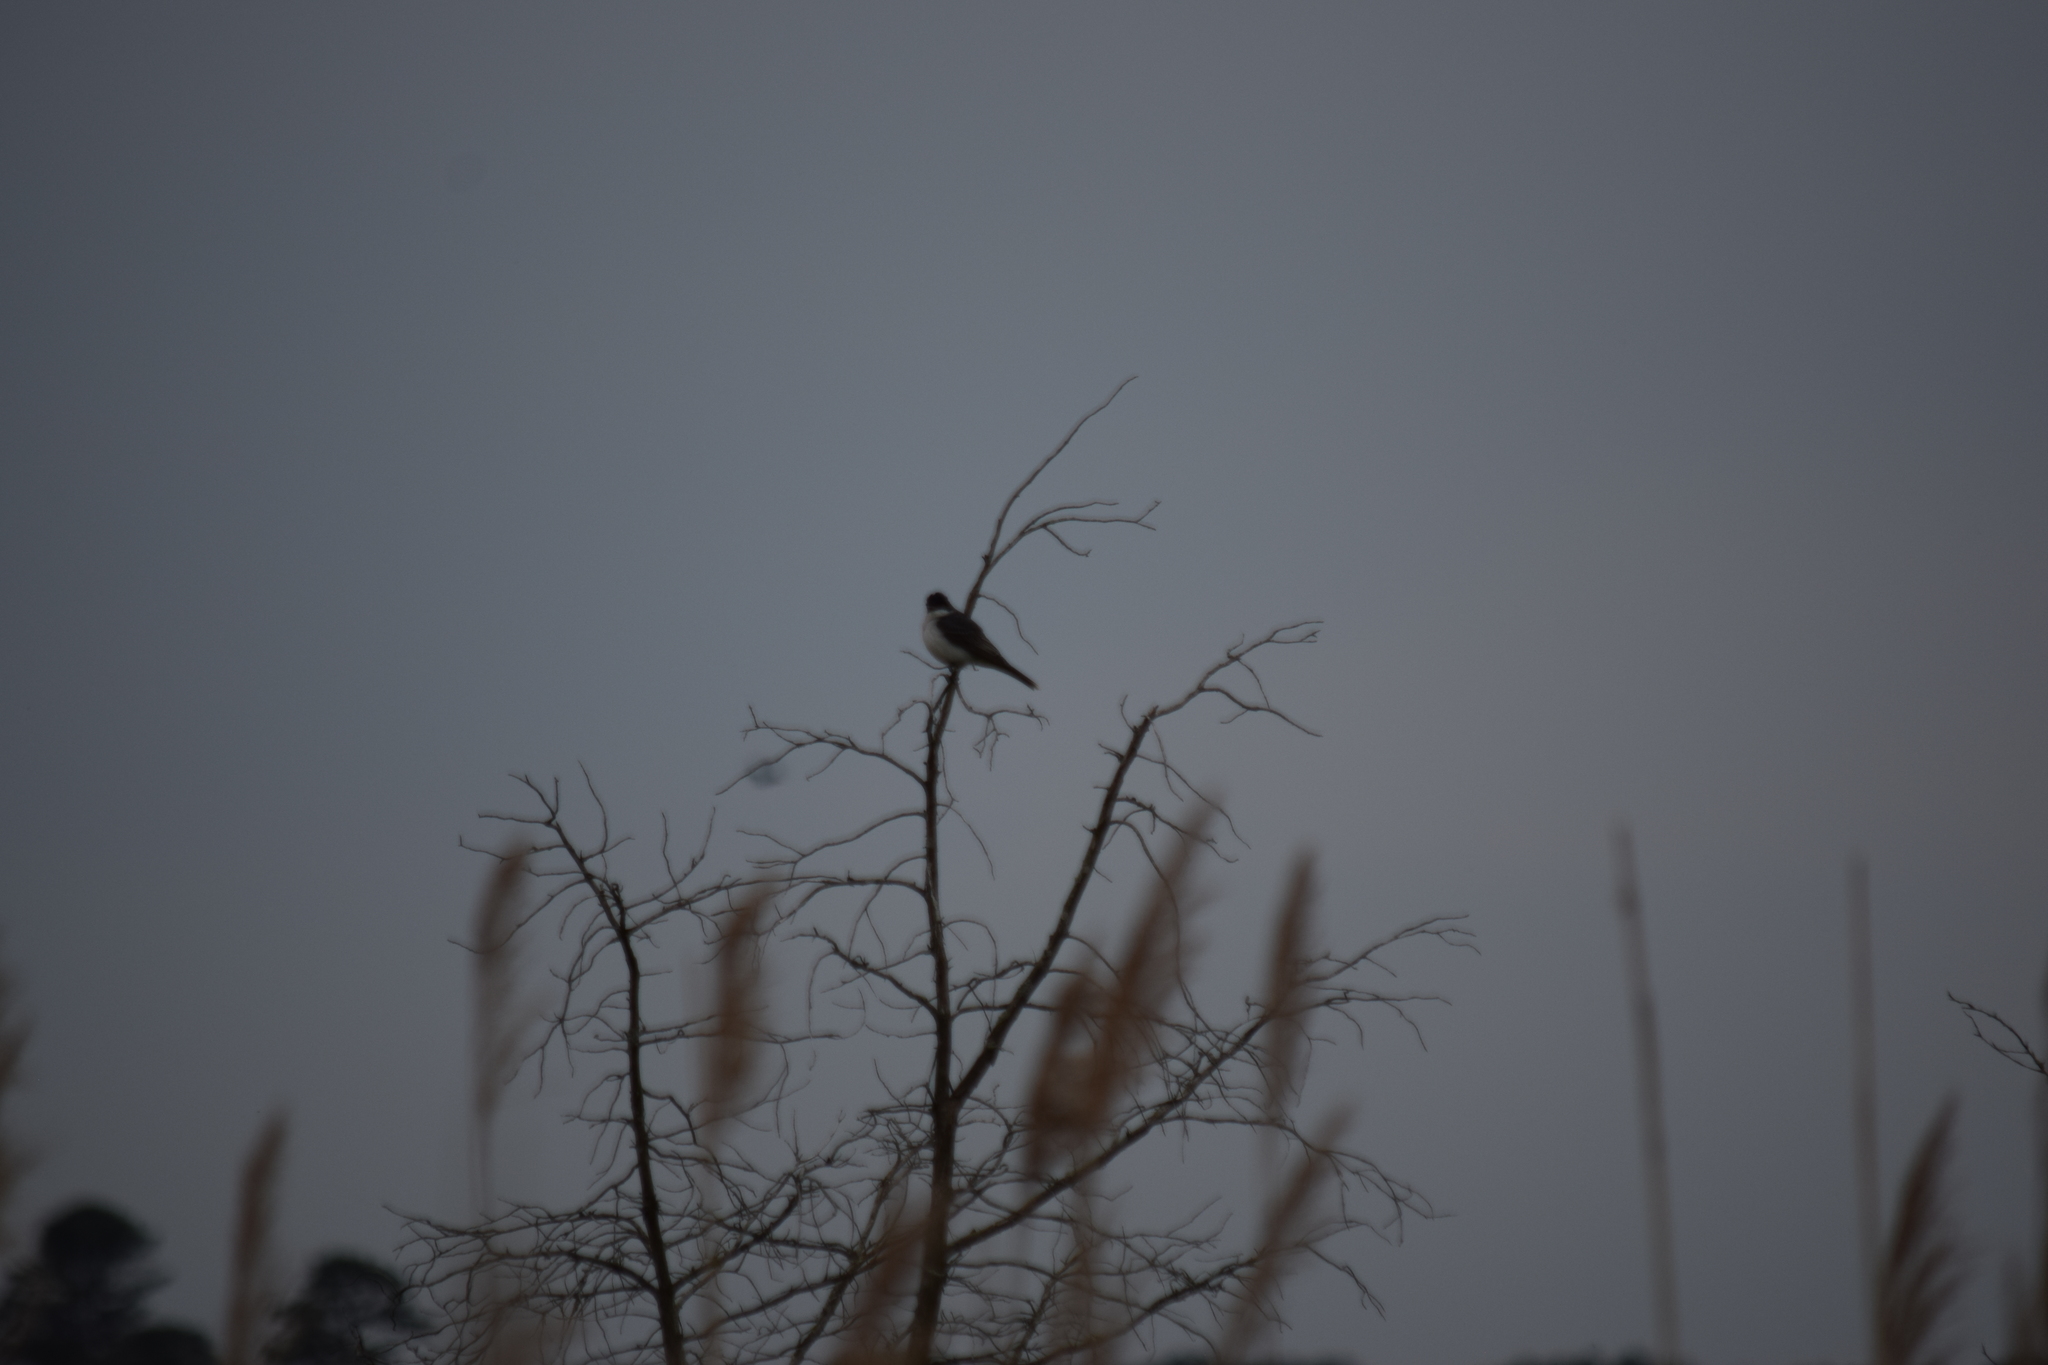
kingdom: Animalia
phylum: Chordata
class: Aves
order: Passeriformes
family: Tyrannidae
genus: Tyrannus
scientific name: Tyrannus tyrannus
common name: Eastern kingbird
